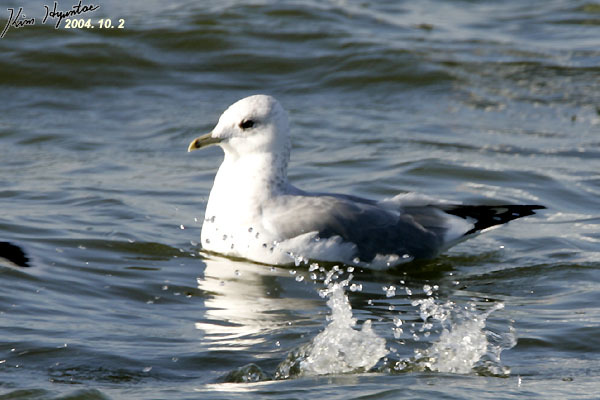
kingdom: Animalia
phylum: Chordata
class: Aves
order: Charadriiformes
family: Laridae
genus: Larus
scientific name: Larus canus
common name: Mew gull
